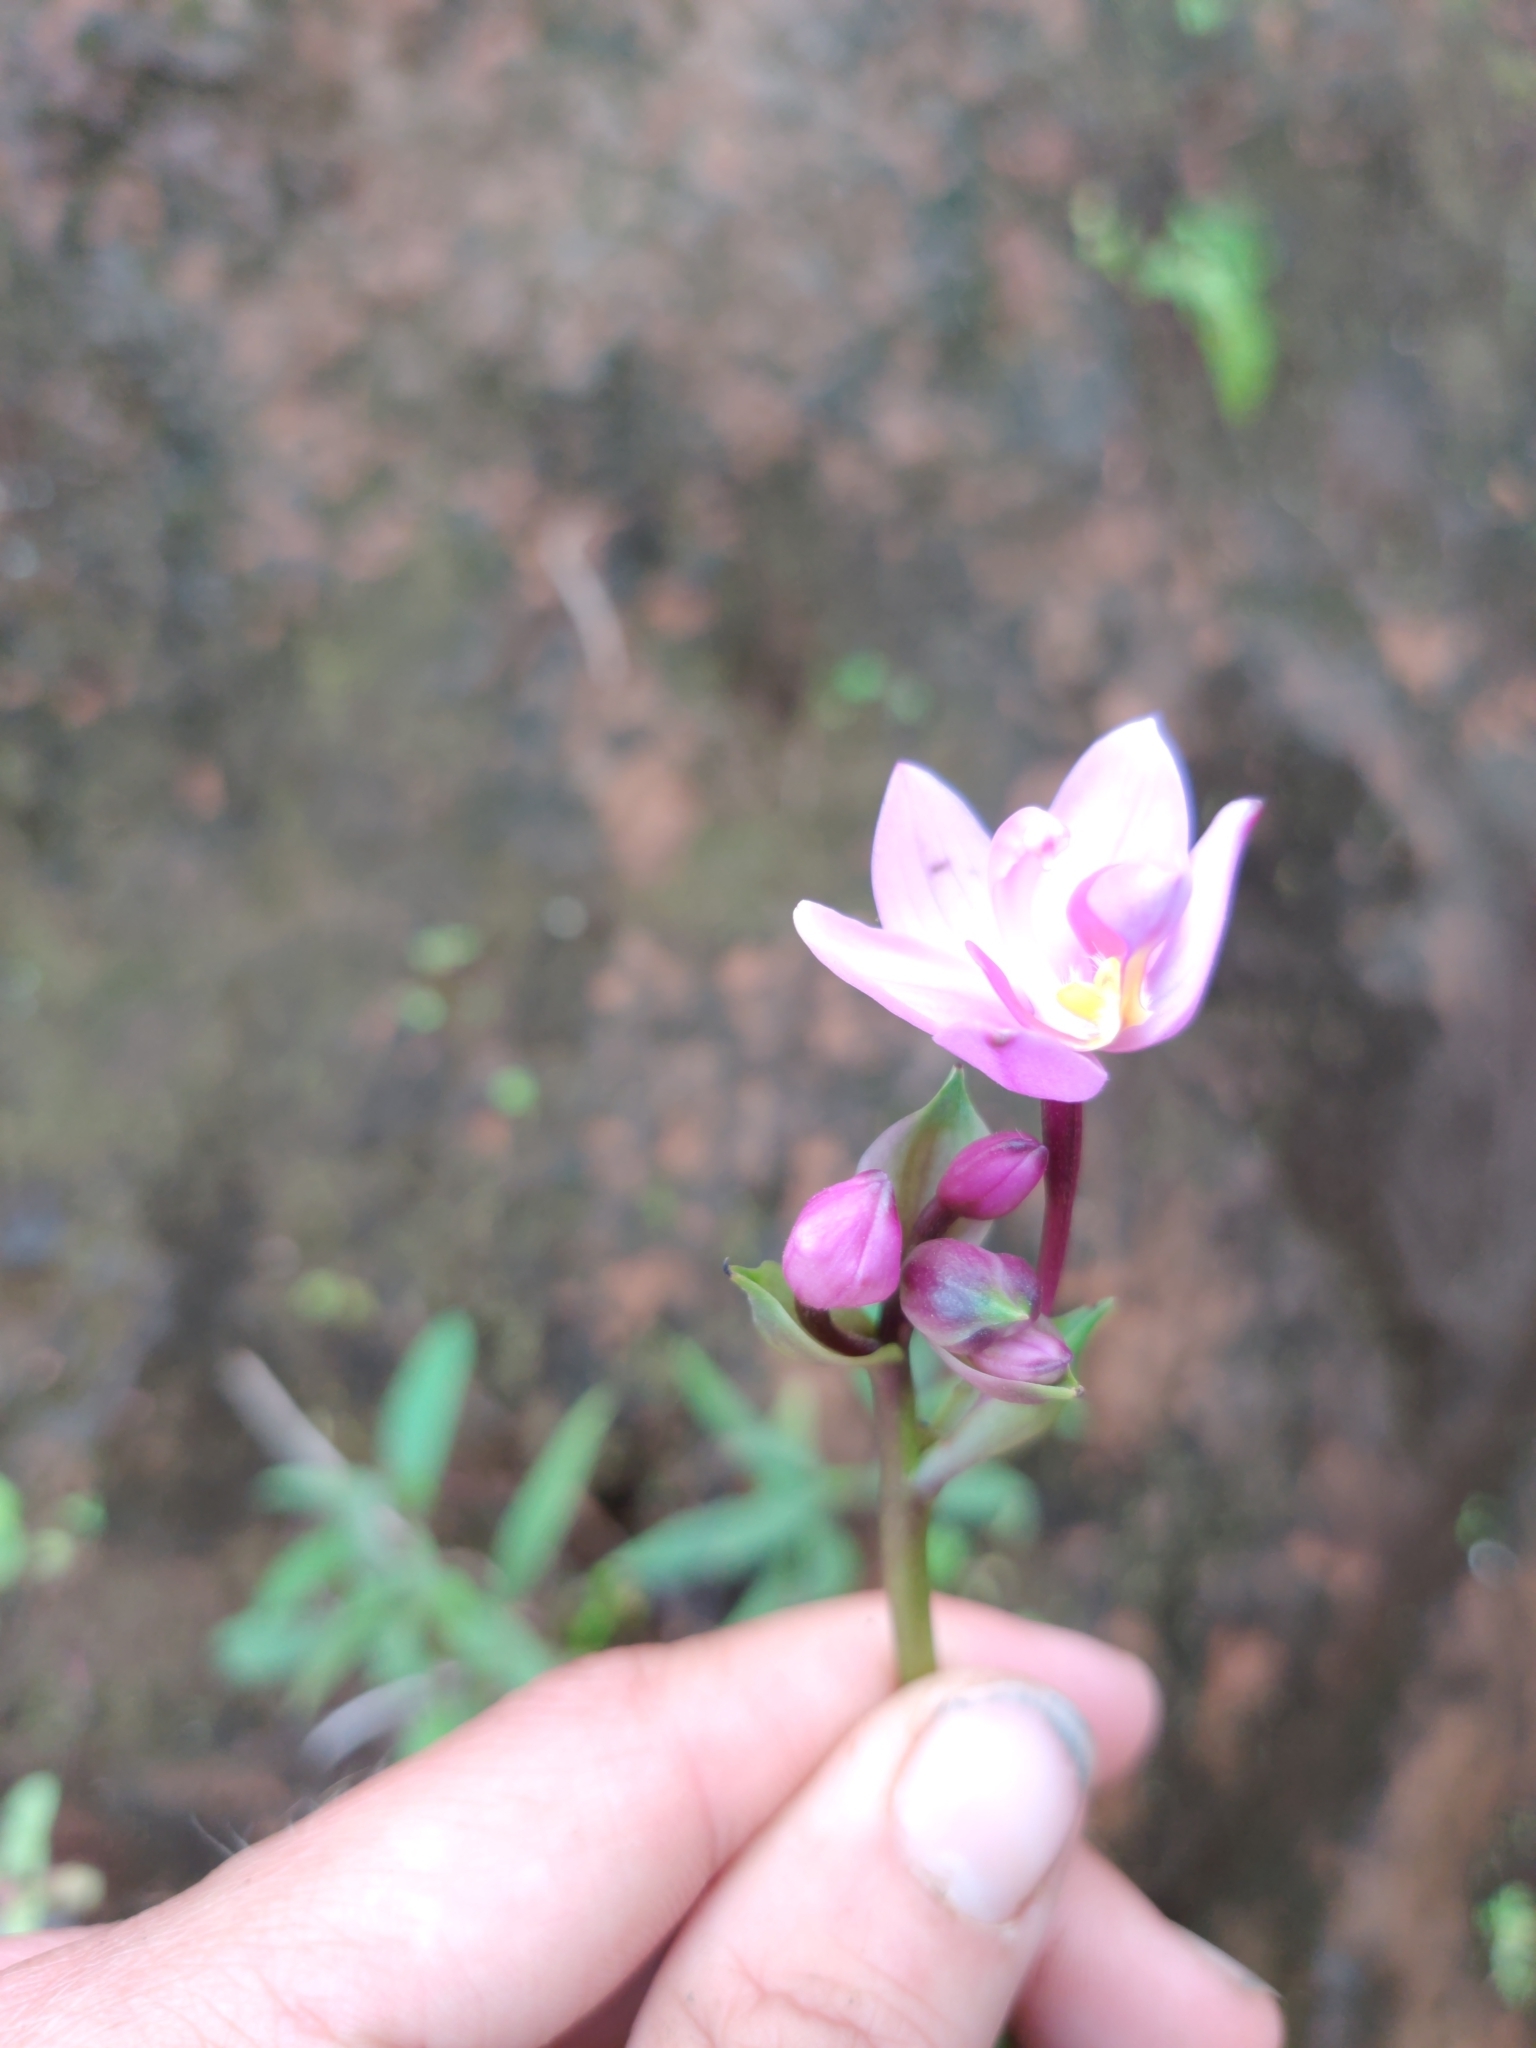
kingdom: Plantae
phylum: Tracheophyta
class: Liliopsida
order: Asparagales
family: Orchidaceae
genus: Spathoglottis
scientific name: Spathoglottis plicata
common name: Philippine ground orchid
